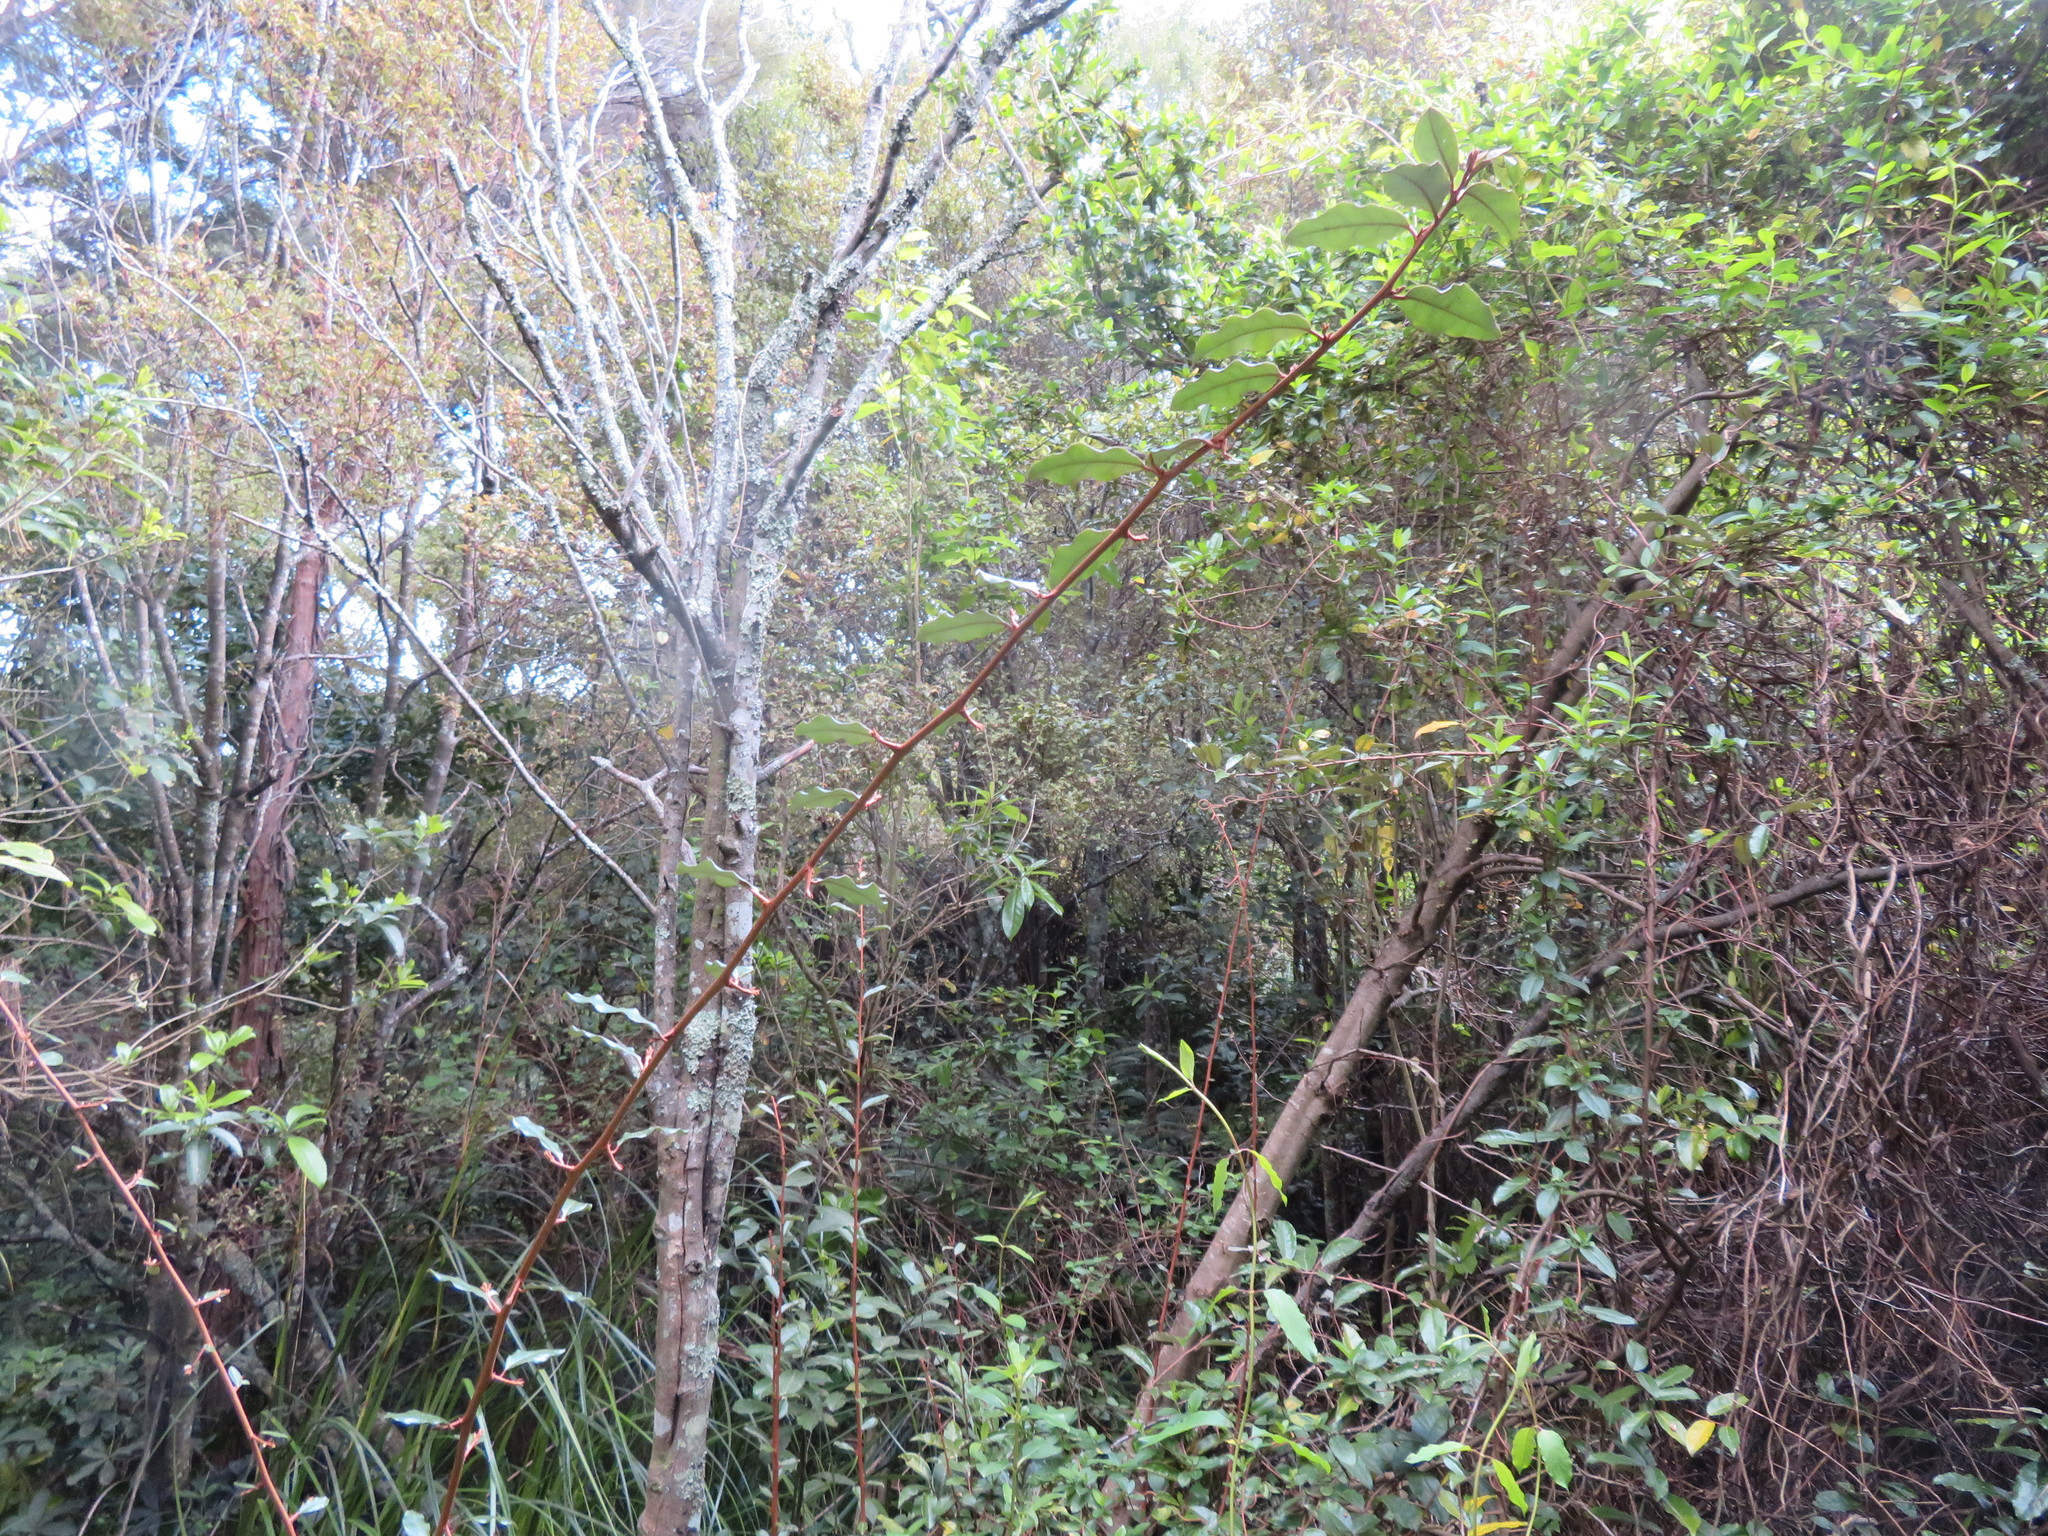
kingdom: Plantae
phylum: Tracheophyta
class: Magnoliopsida
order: Ericales
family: Primulaceae
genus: Myrsine
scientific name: Myrsine australis
